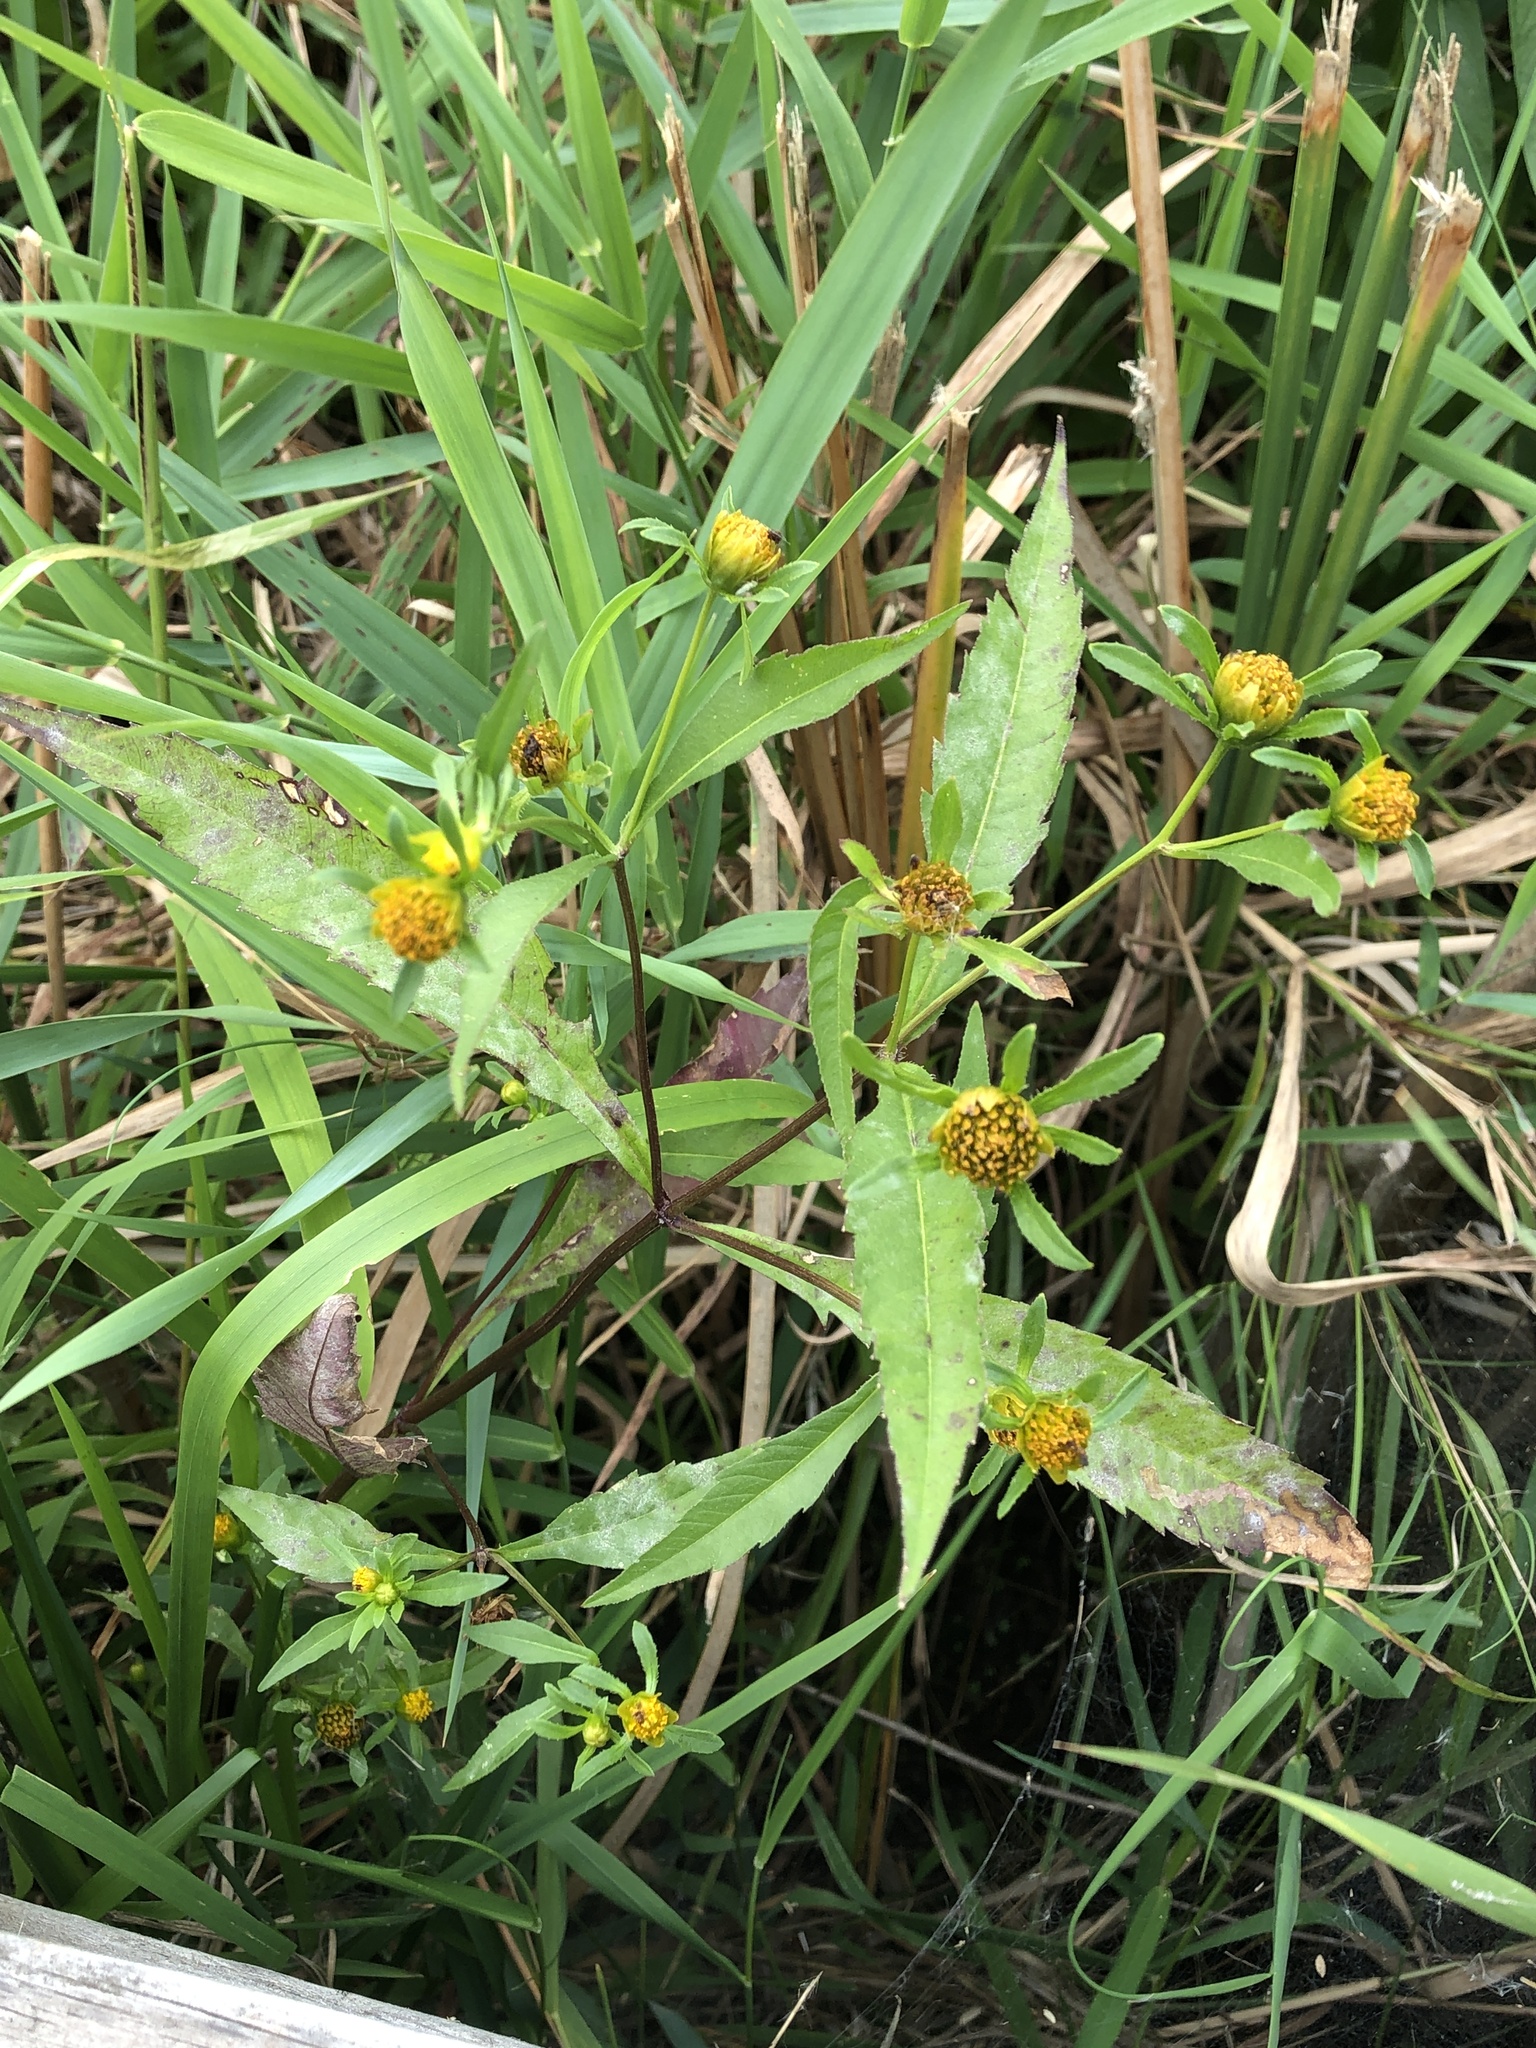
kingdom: Plantae
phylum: Tracheophyta
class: Magnoliopsida
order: Asterales
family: Asteraceae
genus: Bidens
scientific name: Bidens connata
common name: London bur-marigold
